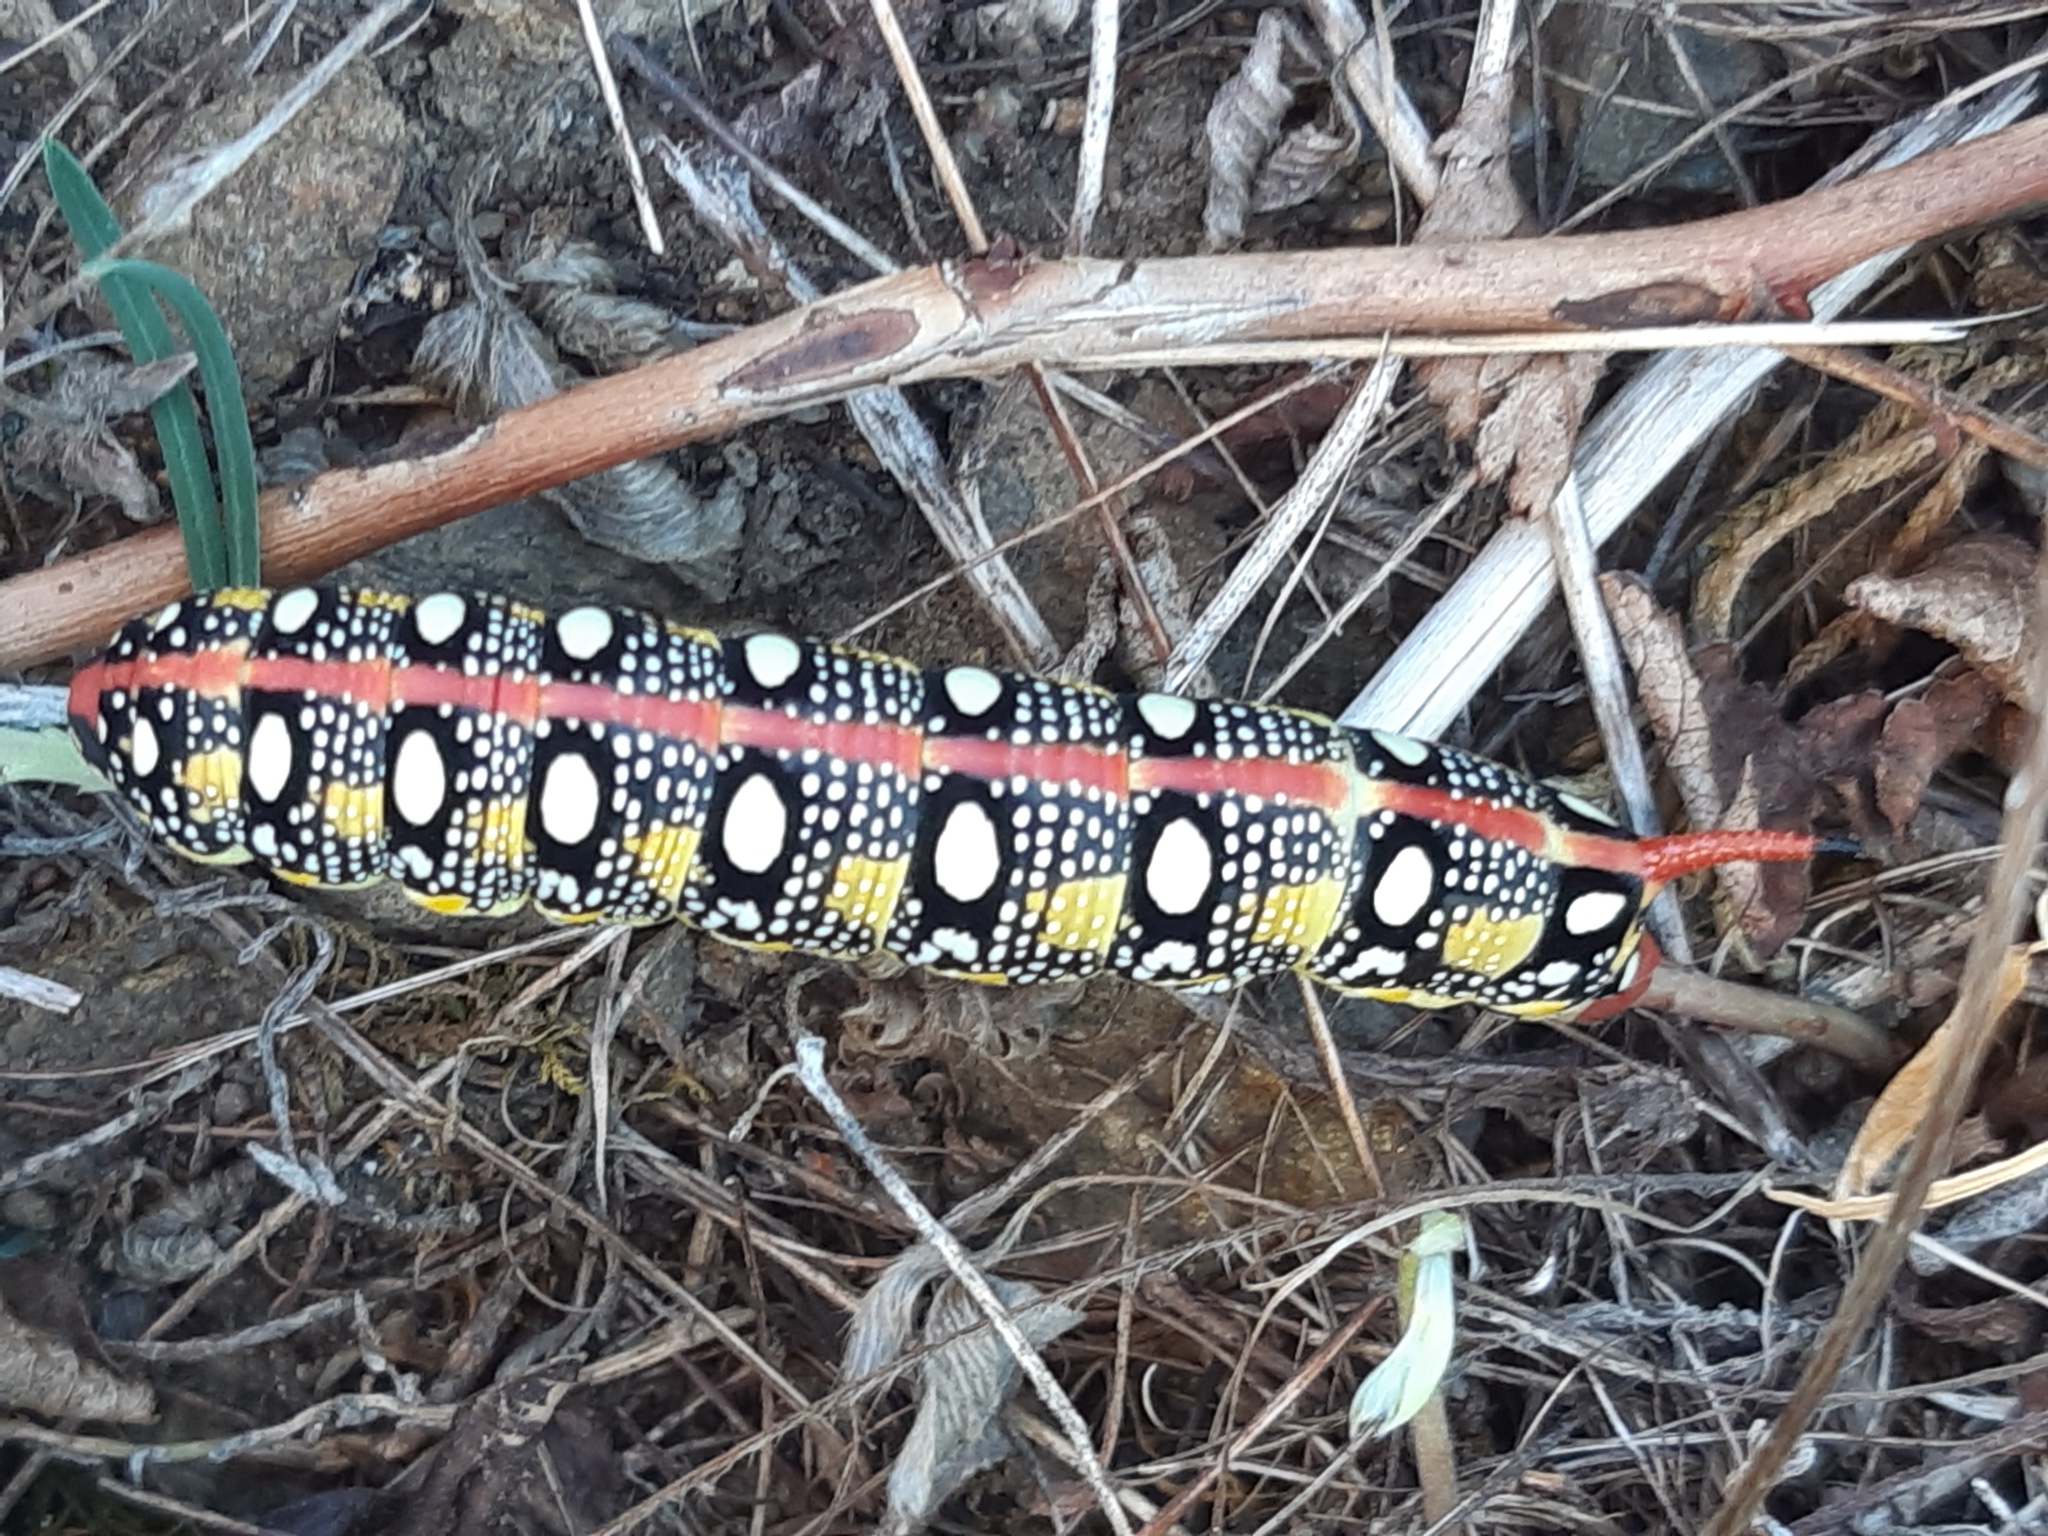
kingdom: Animalia
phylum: Arthropoda
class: Insecta
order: Lepidoptera
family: Sphingidae
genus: Hyles
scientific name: Hyles euphorbiae
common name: Spurge hawk-moth
